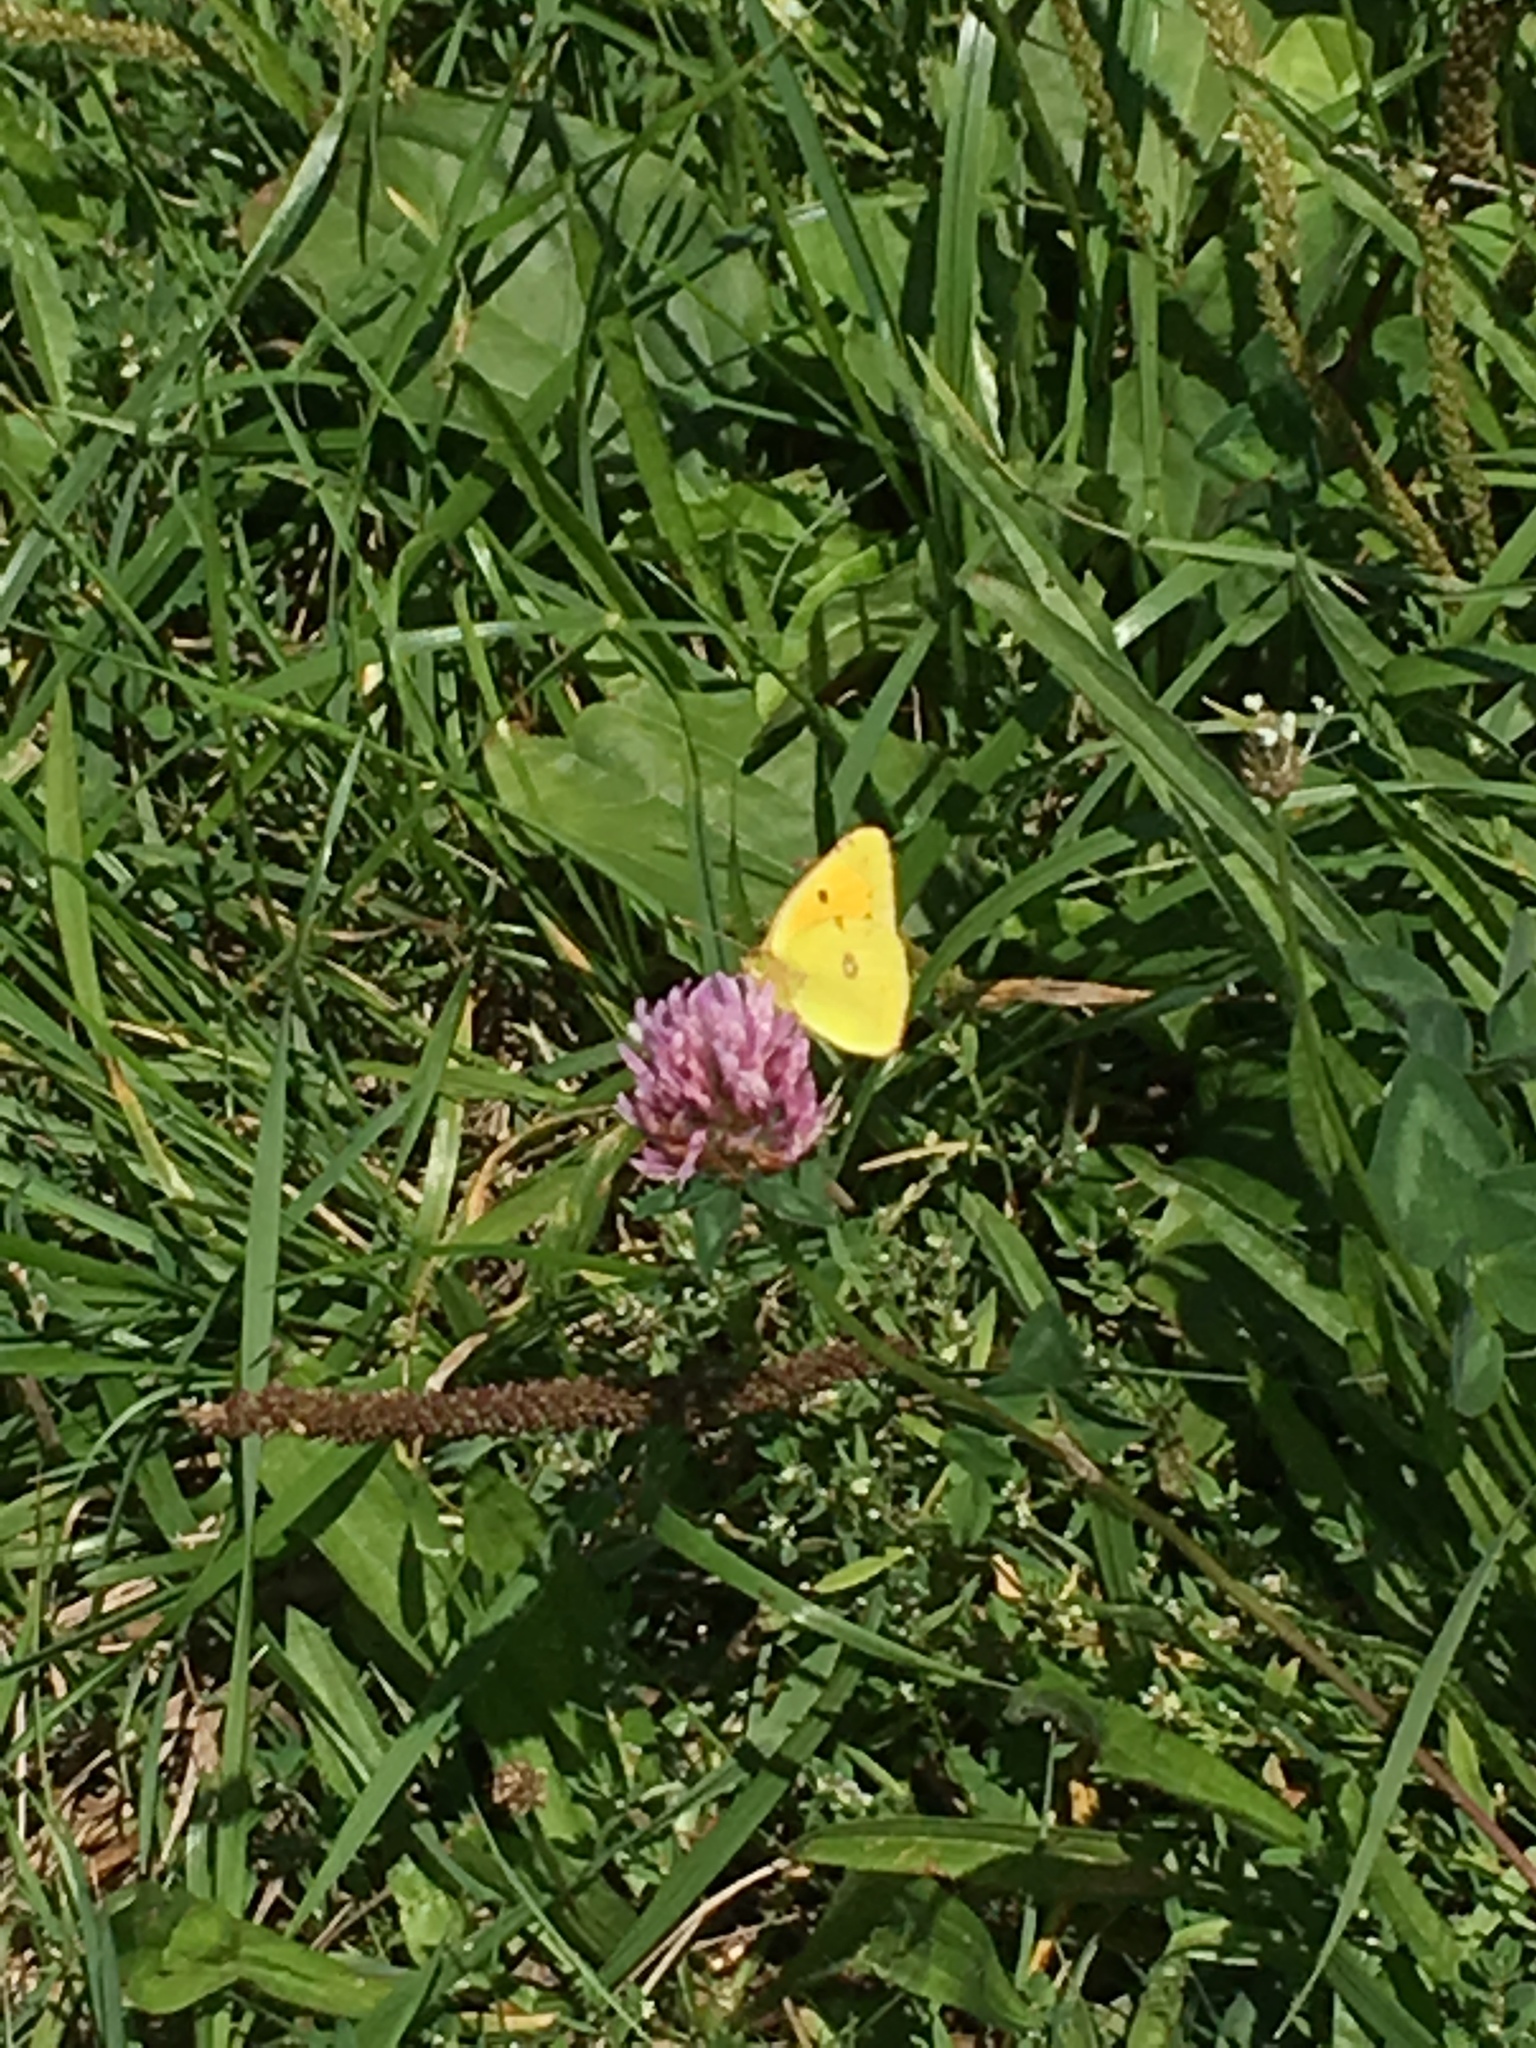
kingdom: Animalia
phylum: Arthropoda
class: Insecta
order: Lepidoptera
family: Pieridae
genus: Colias
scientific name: Colias croceus
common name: Clouded yellow
